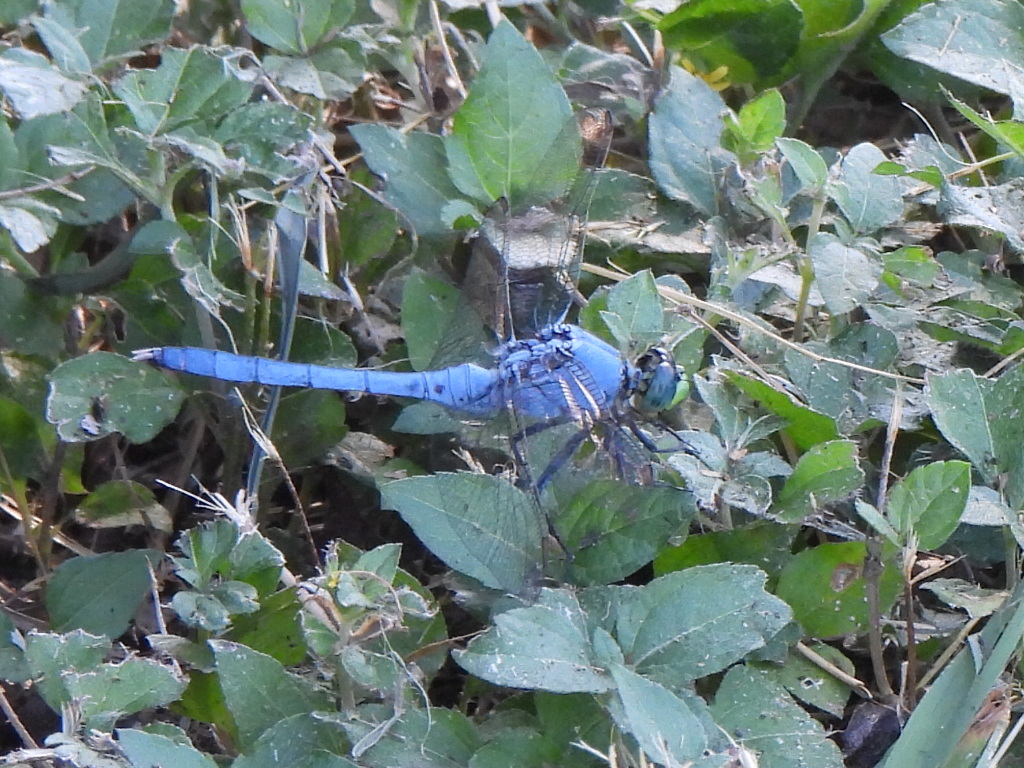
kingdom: Animalia
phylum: Arthropoda
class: Insecta
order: Odonata
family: Libellulidae
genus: Erythemis
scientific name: Erythemis simplicicollis
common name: Eastern pondhawk
